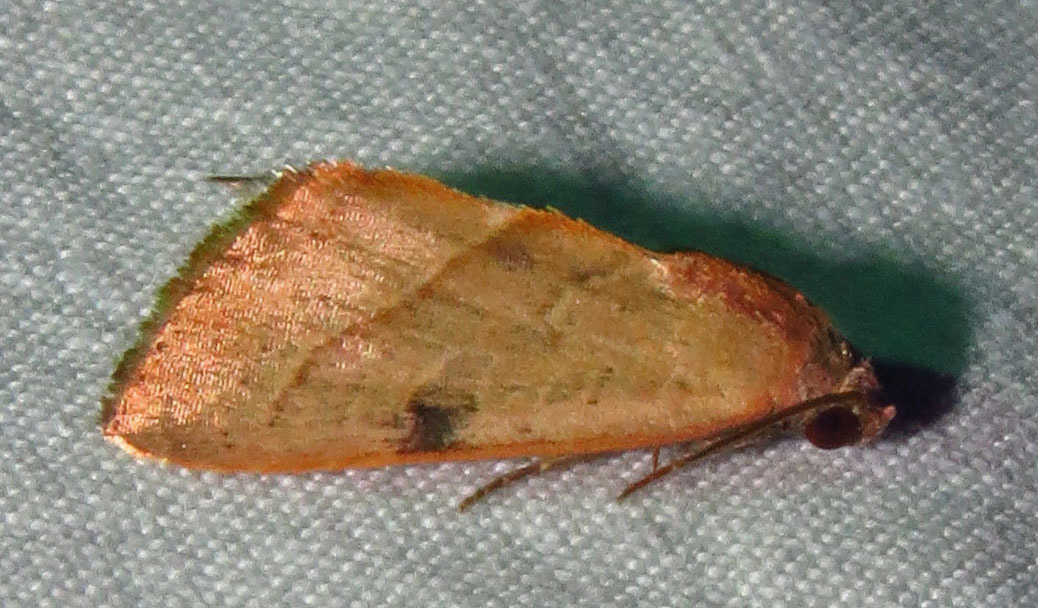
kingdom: Animalia
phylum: Arthropoda
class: Insecta
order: Lepidoptera
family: Noctuidae
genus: Galgula
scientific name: Galgula partita
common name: Wedgeling
